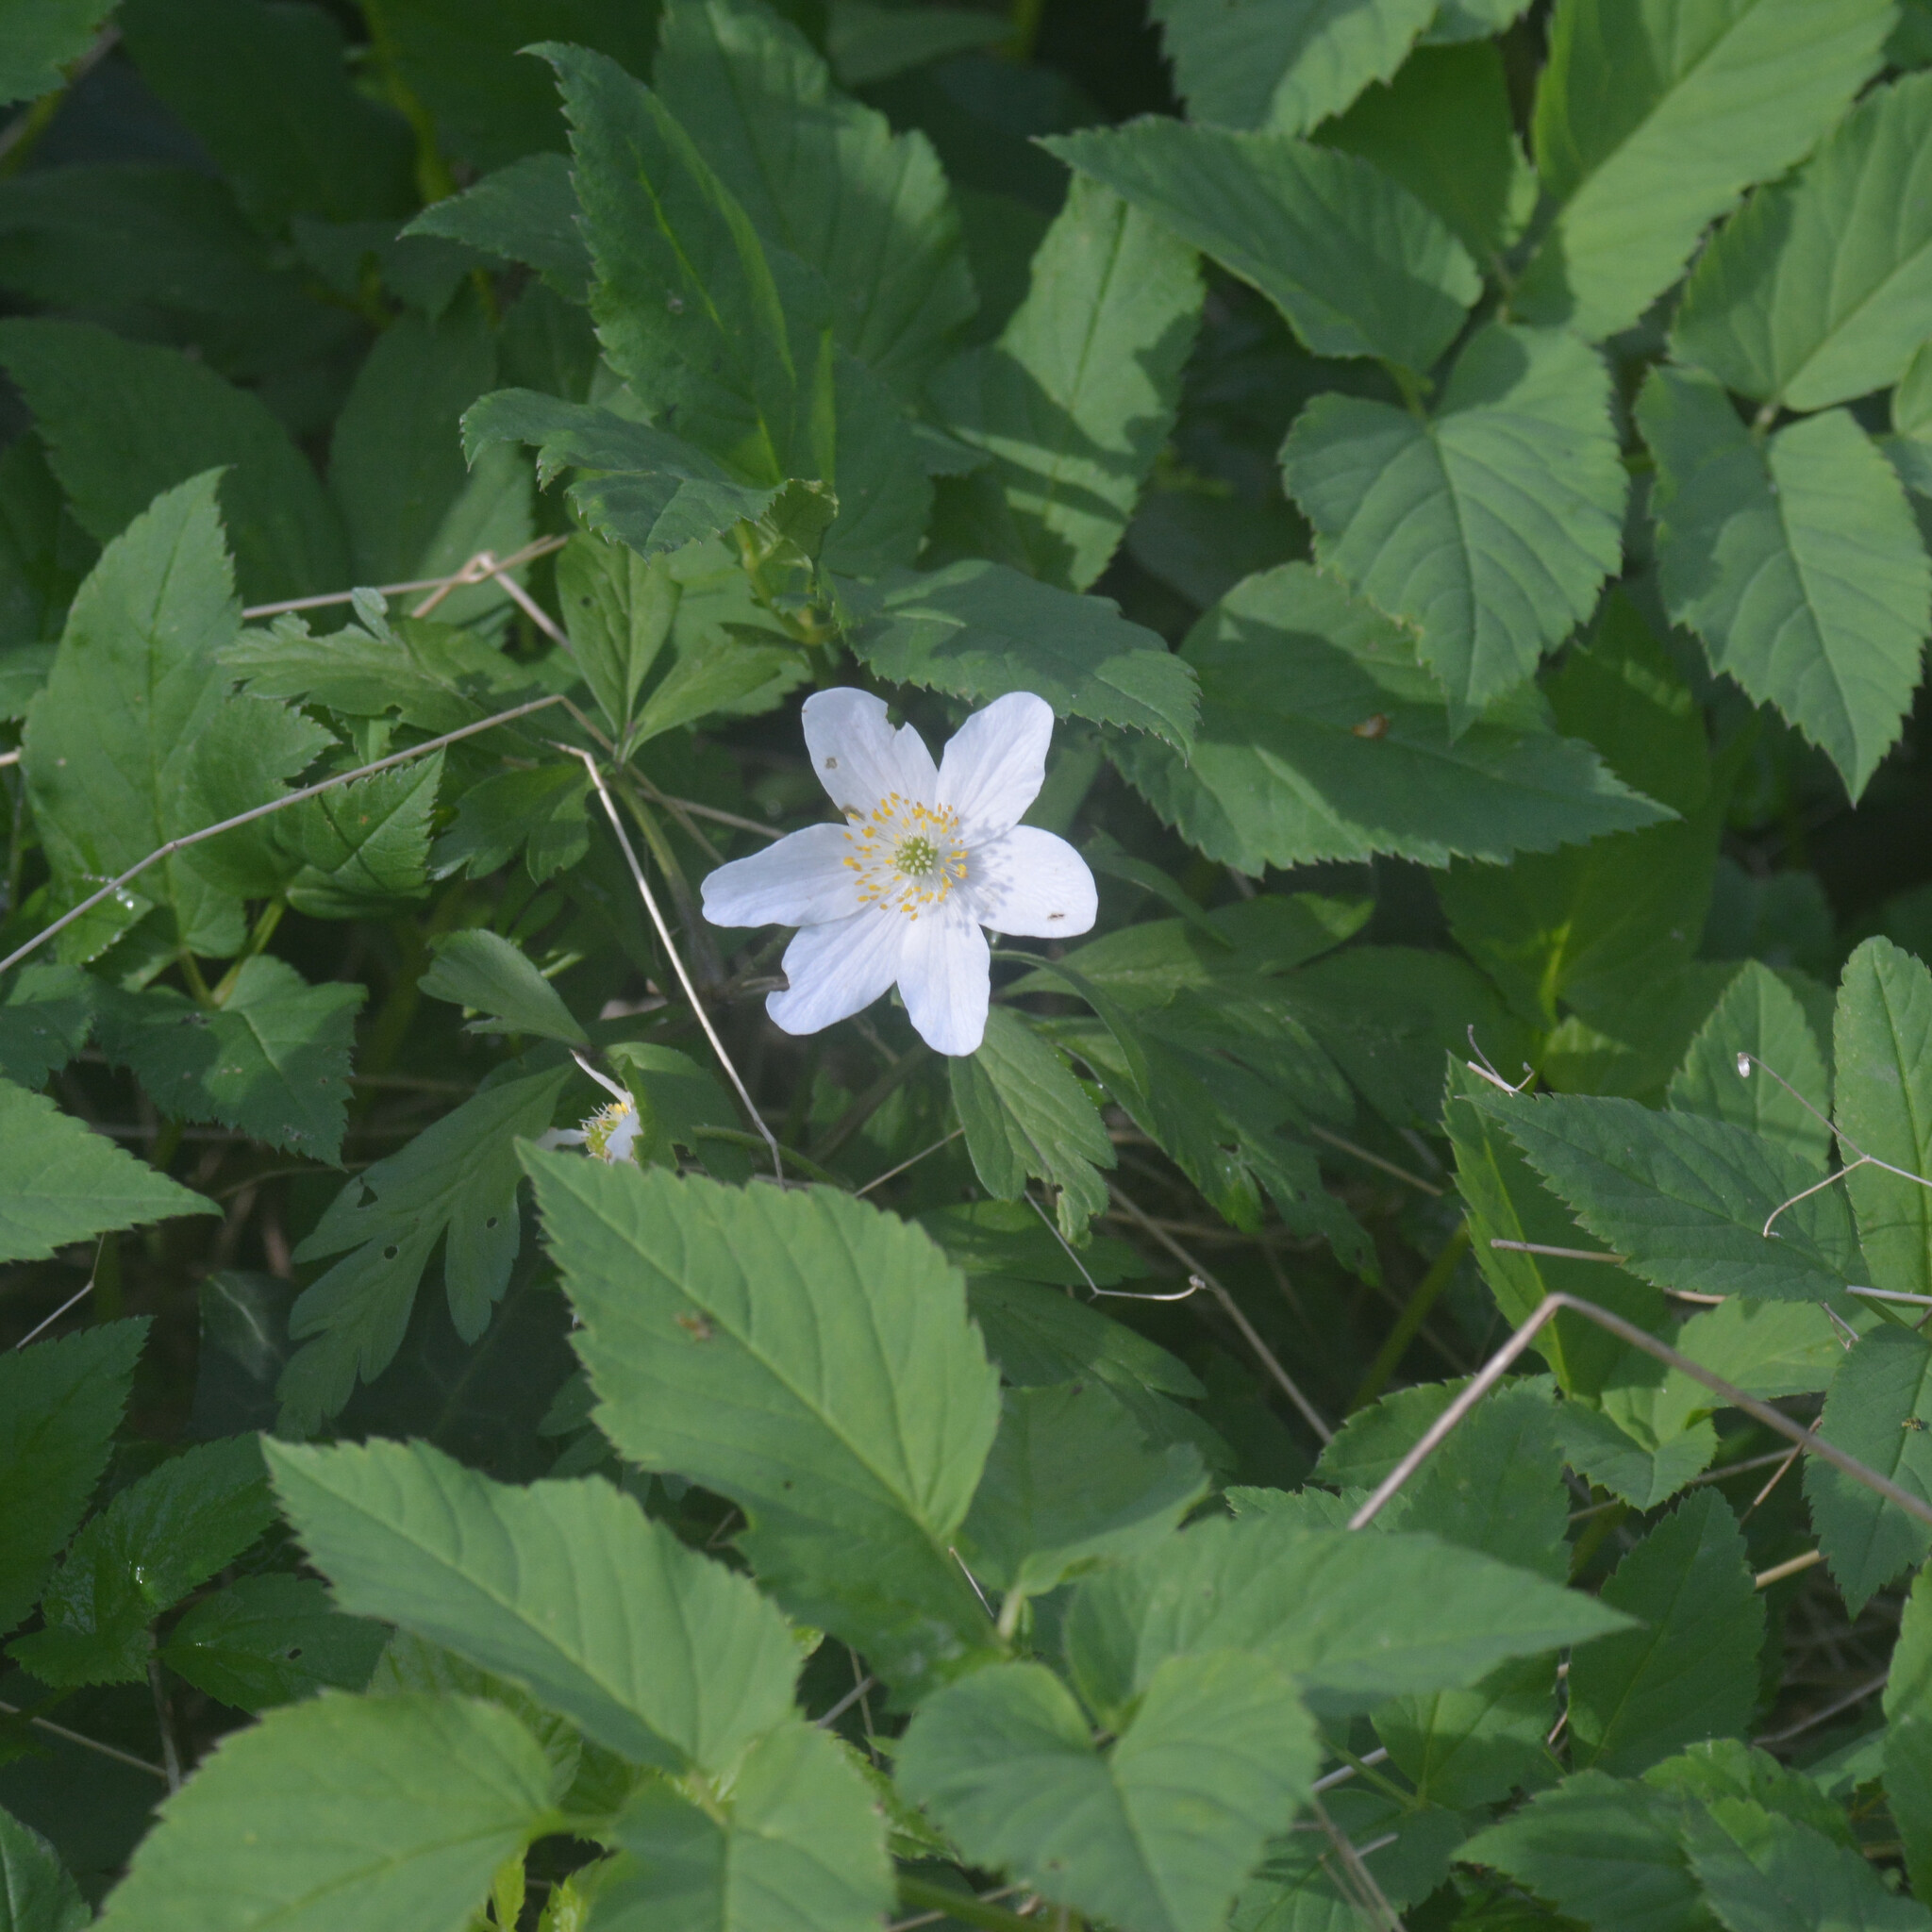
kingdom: Plantae
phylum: Tracheophyta
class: Magnoliopsida
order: Ranunculales
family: Ranunculaceae
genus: Anemone
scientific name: Anemone nemorosa
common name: Wood anemone
